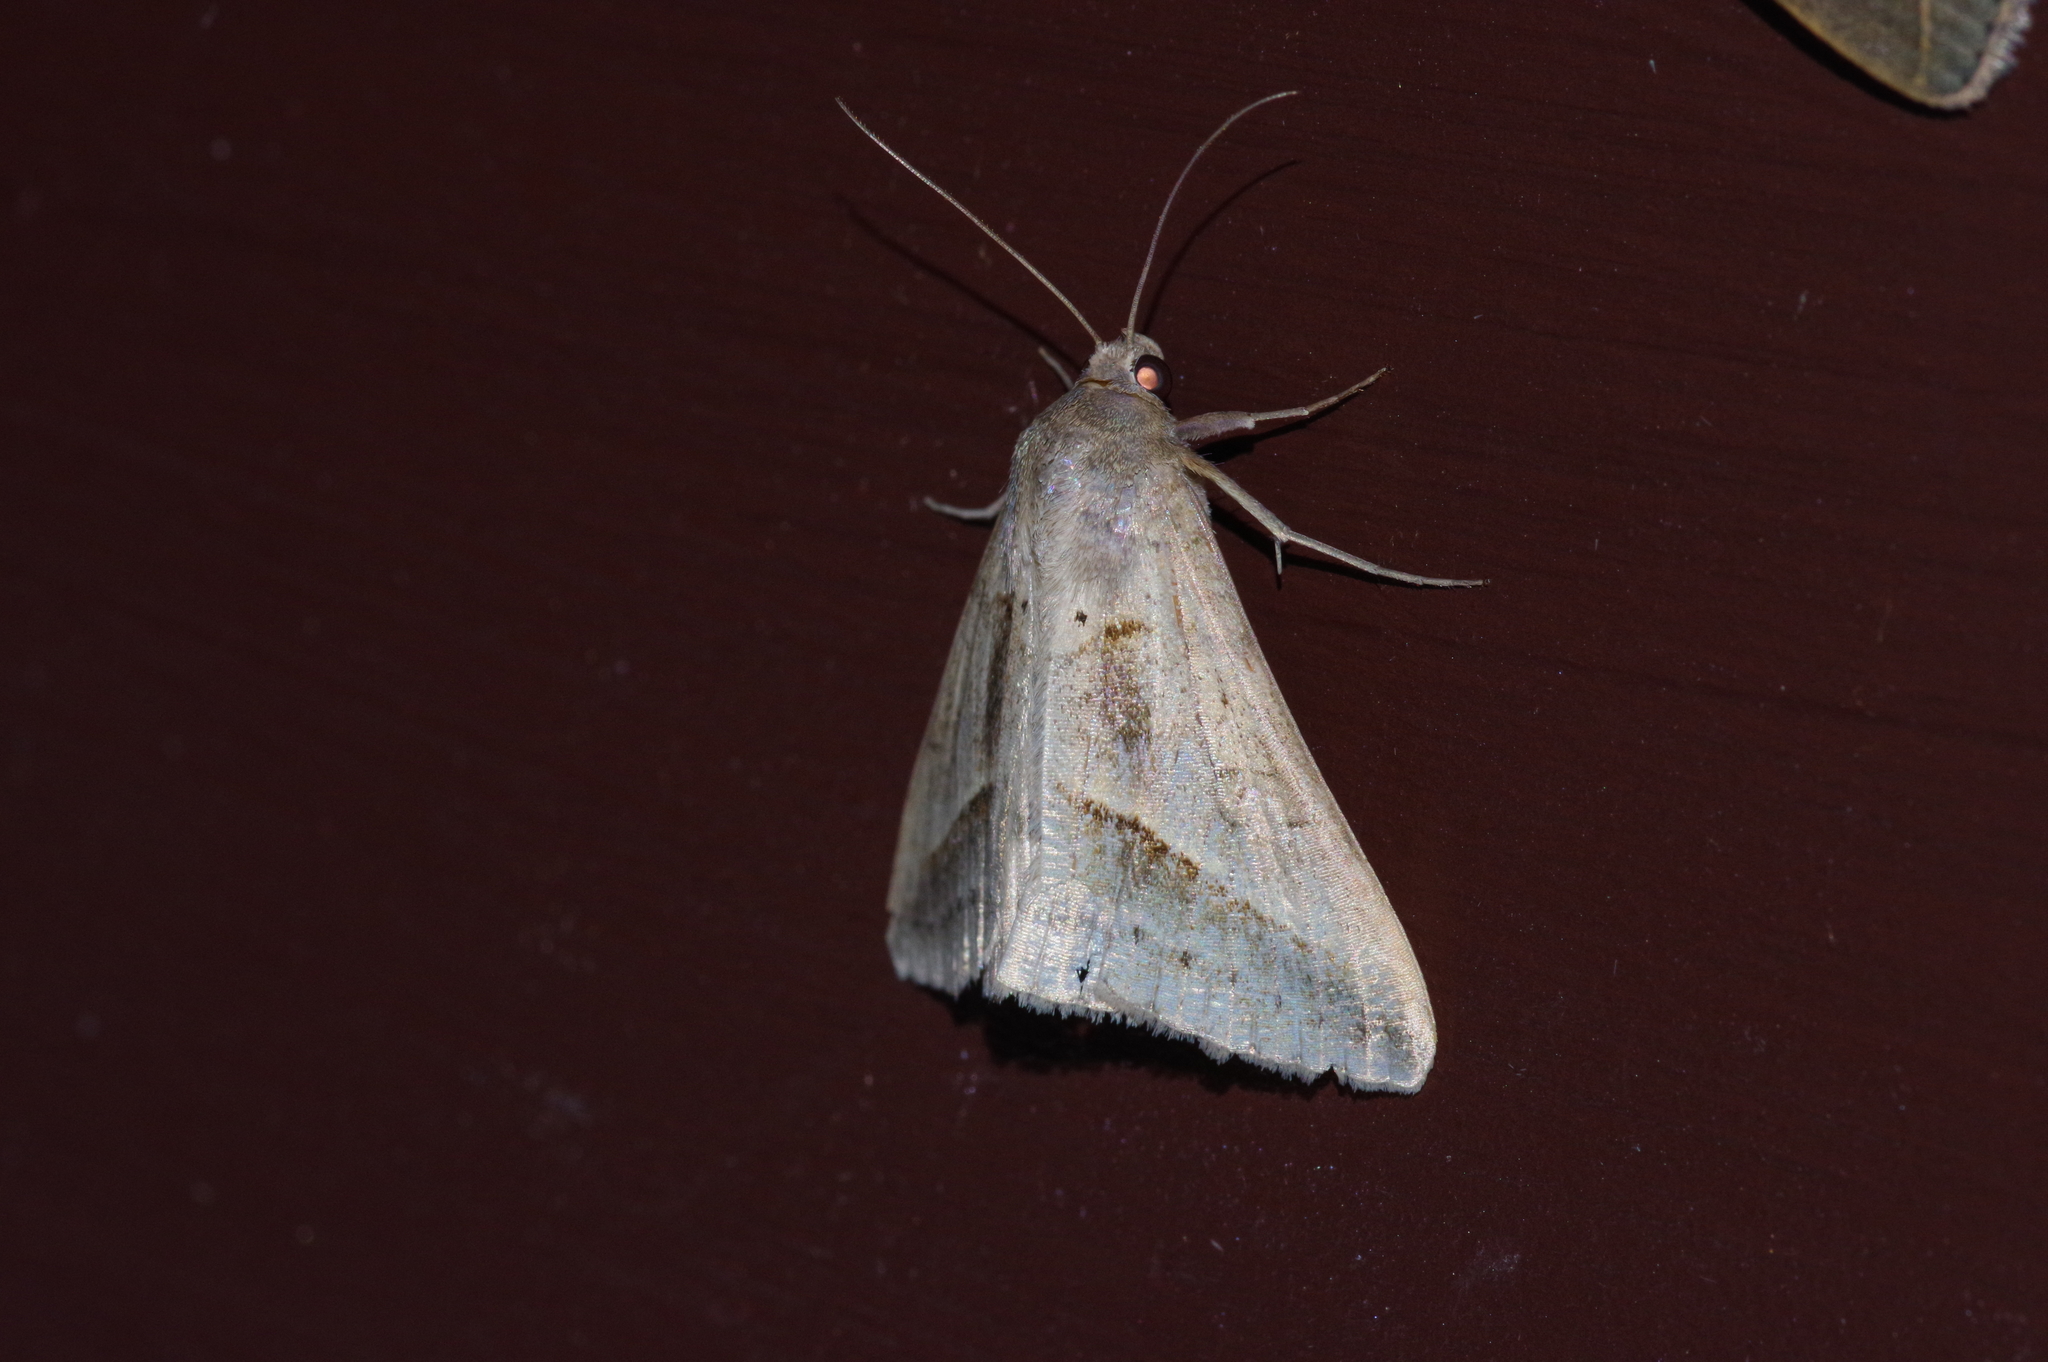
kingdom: Animalia
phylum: Arthropoda
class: Insecta
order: Lepidoptera
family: Erebidae
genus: Mocis
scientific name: Mocis frugalis
